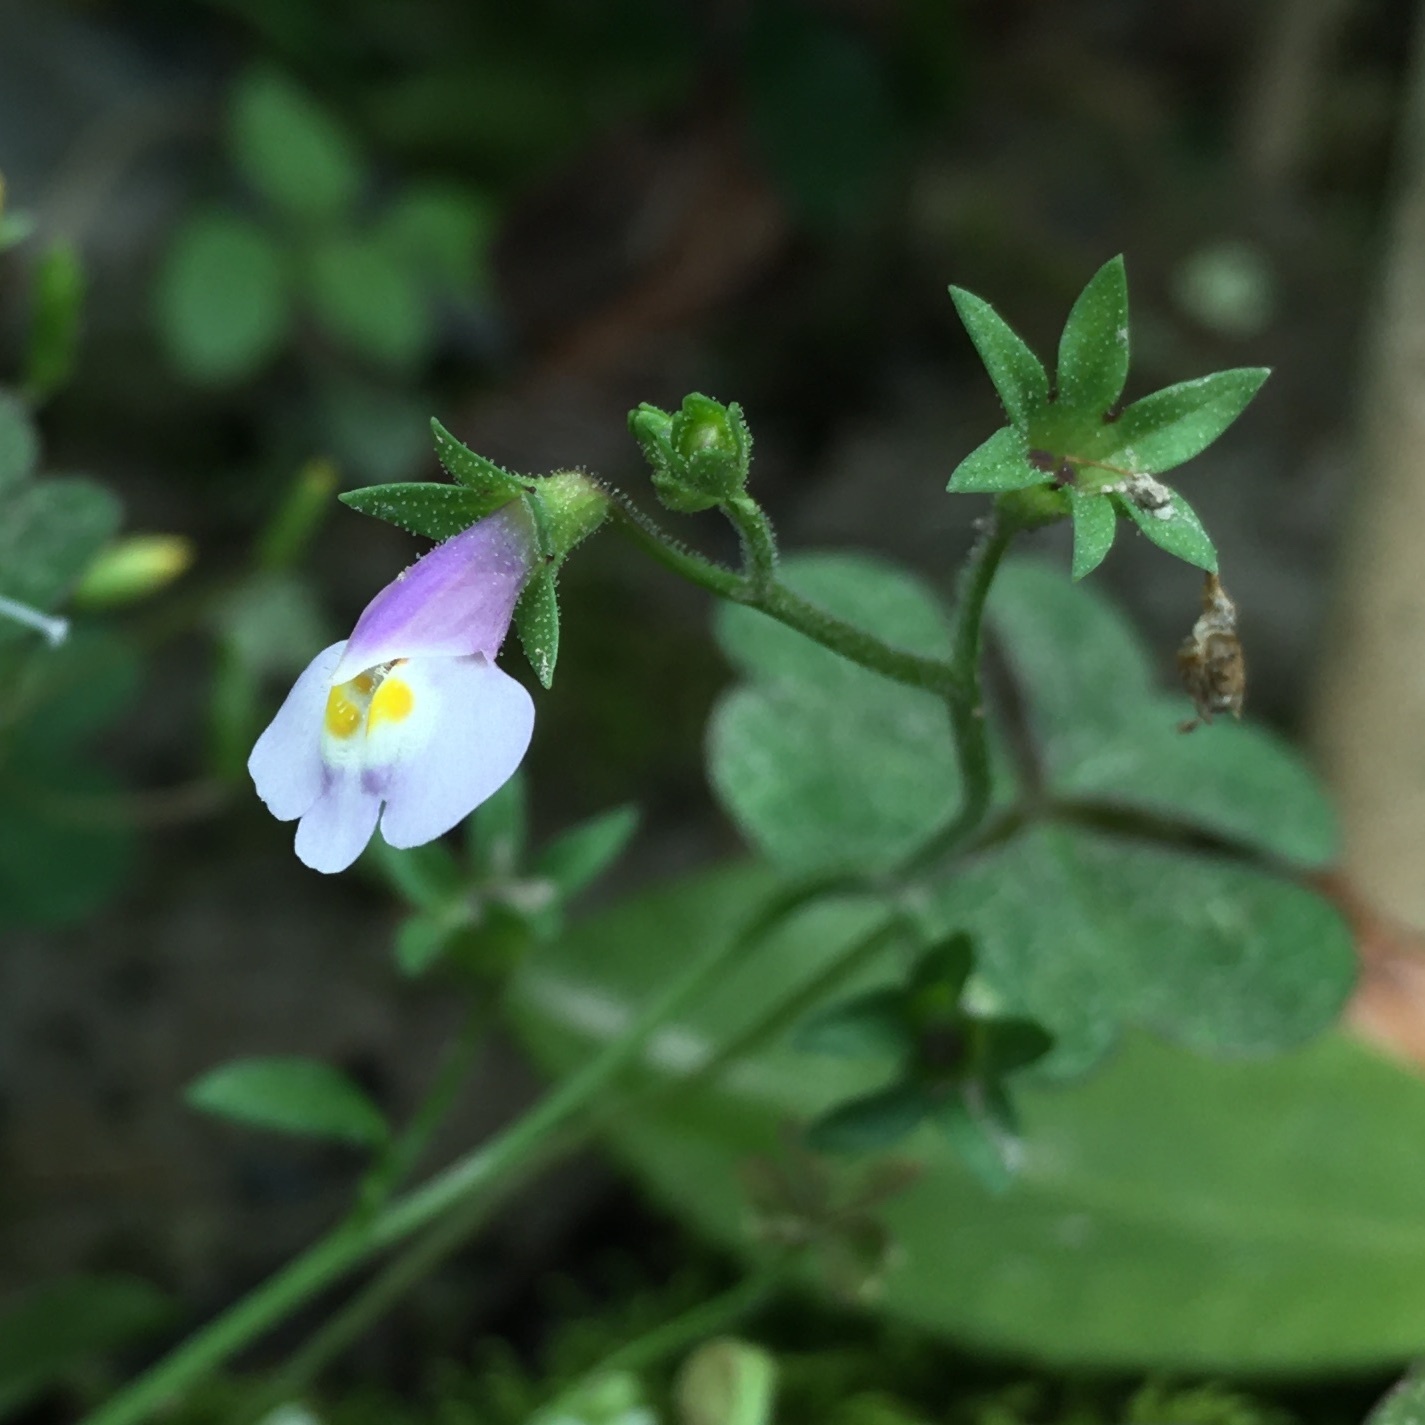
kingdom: Plantae
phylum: Tracheophyta
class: Magnoliopsida
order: Lamiales
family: Mazaceae
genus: Mazus
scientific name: Mazus pumilus
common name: Japanese mazus
